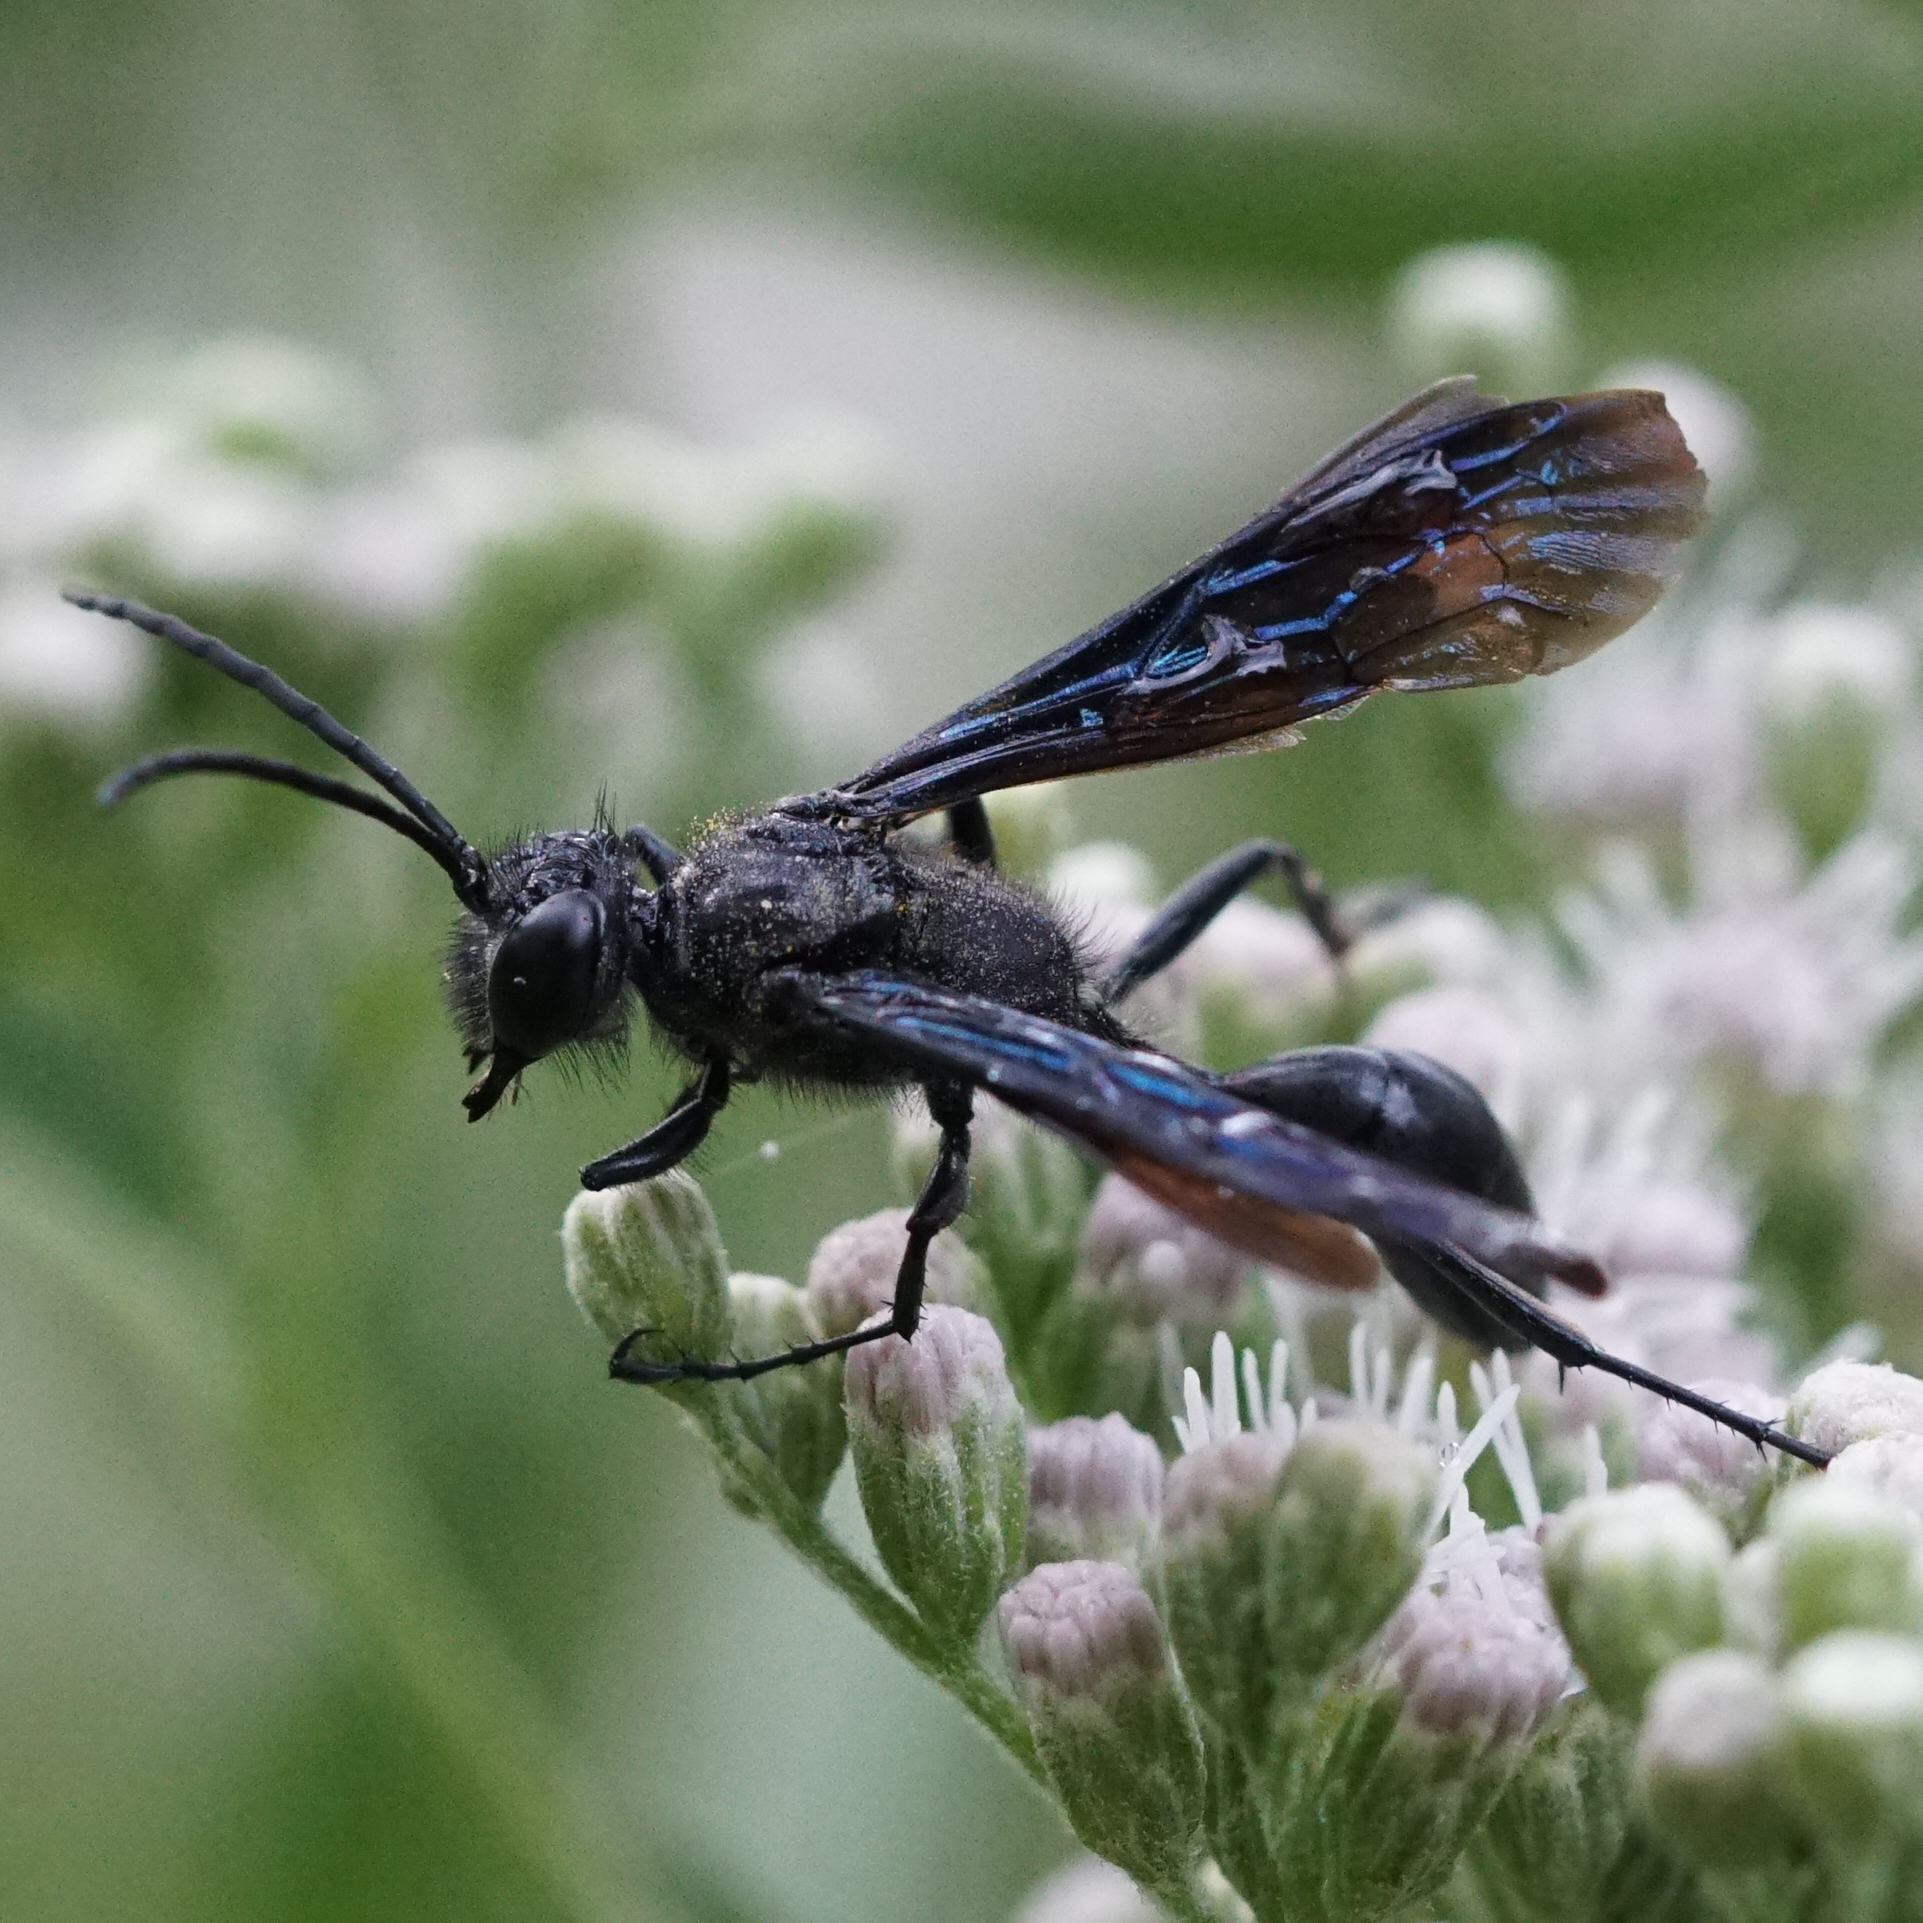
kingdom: Animalia
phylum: Arthropoda
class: Insecta
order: Hymenoptera
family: Sphecidae
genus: Isodontia
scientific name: Isodontia philadelphica
